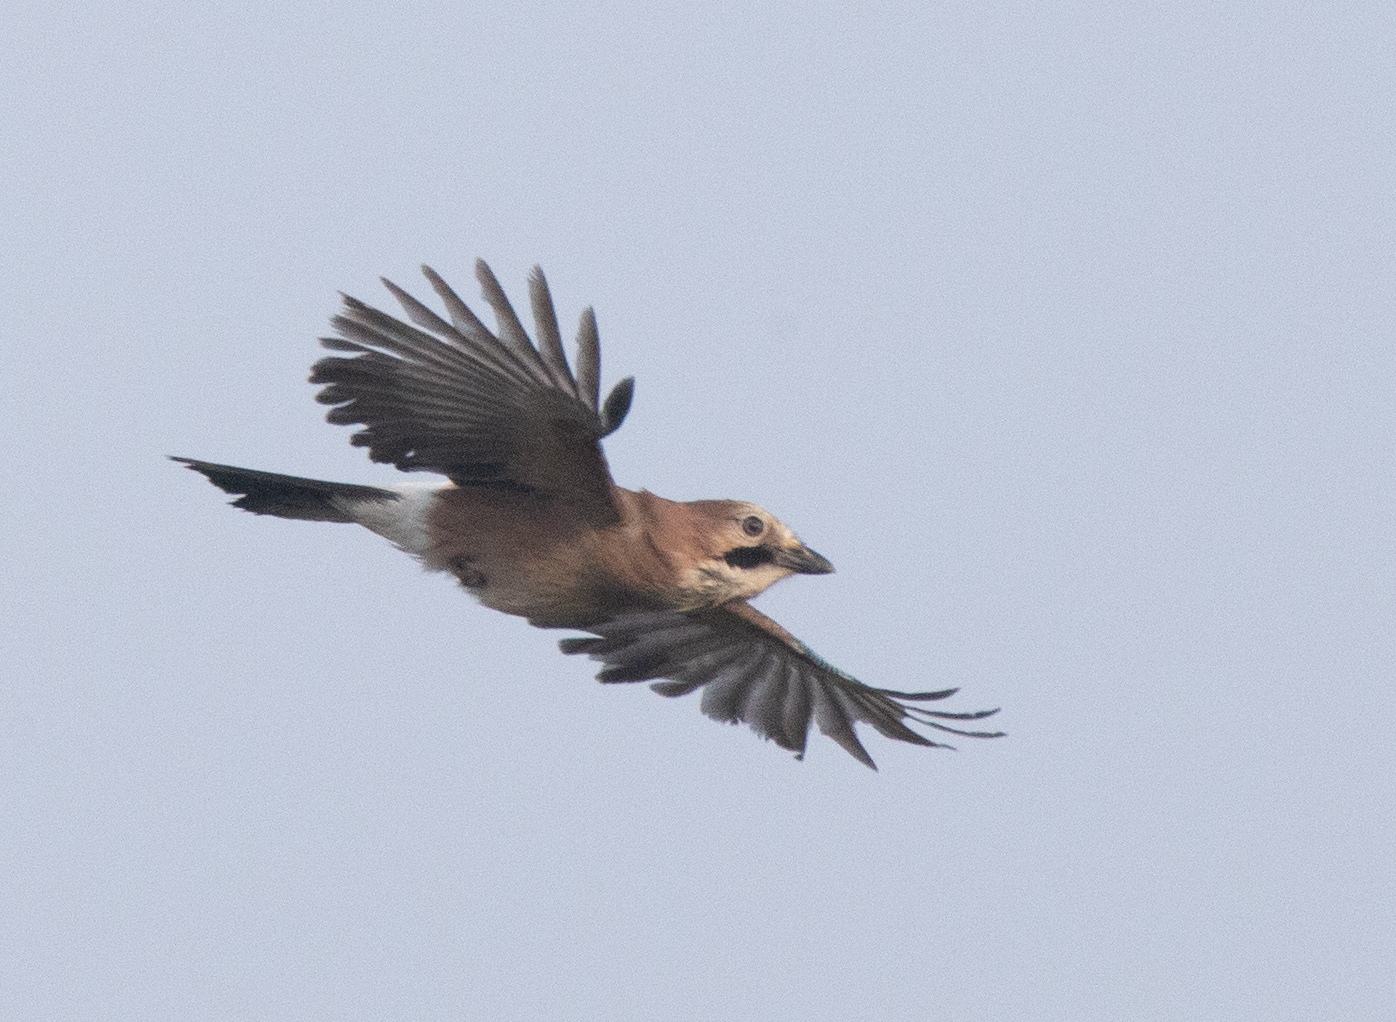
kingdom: Animalia
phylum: Chordata
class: Aves
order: Passeriformes
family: Corvidae
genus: Garrulus
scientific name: Garrulus glandarius
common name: Eurasian jay
